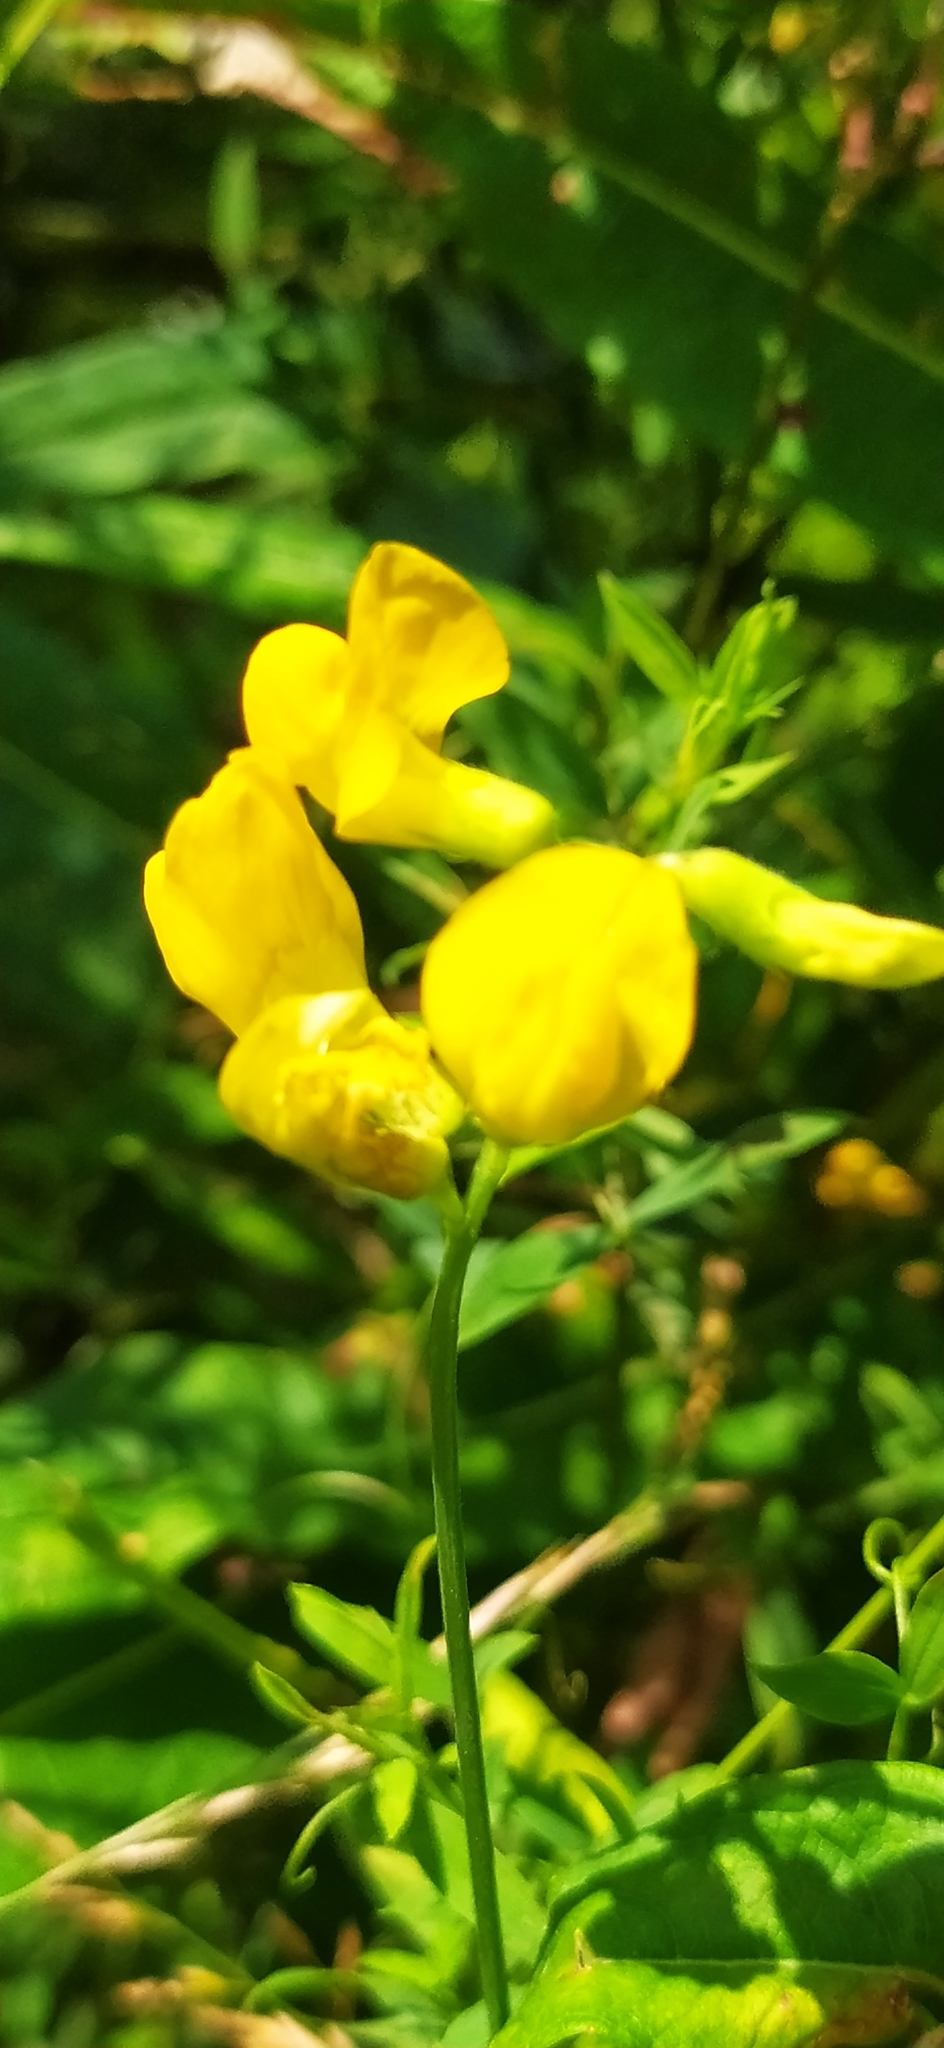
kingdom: Plantae
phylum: Tracheophyta
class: Magnoliopsida
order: Fabales
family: Fabaceae
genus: Lathyrus
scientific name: Lathyrus pratensis
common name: Meadow vetchling
